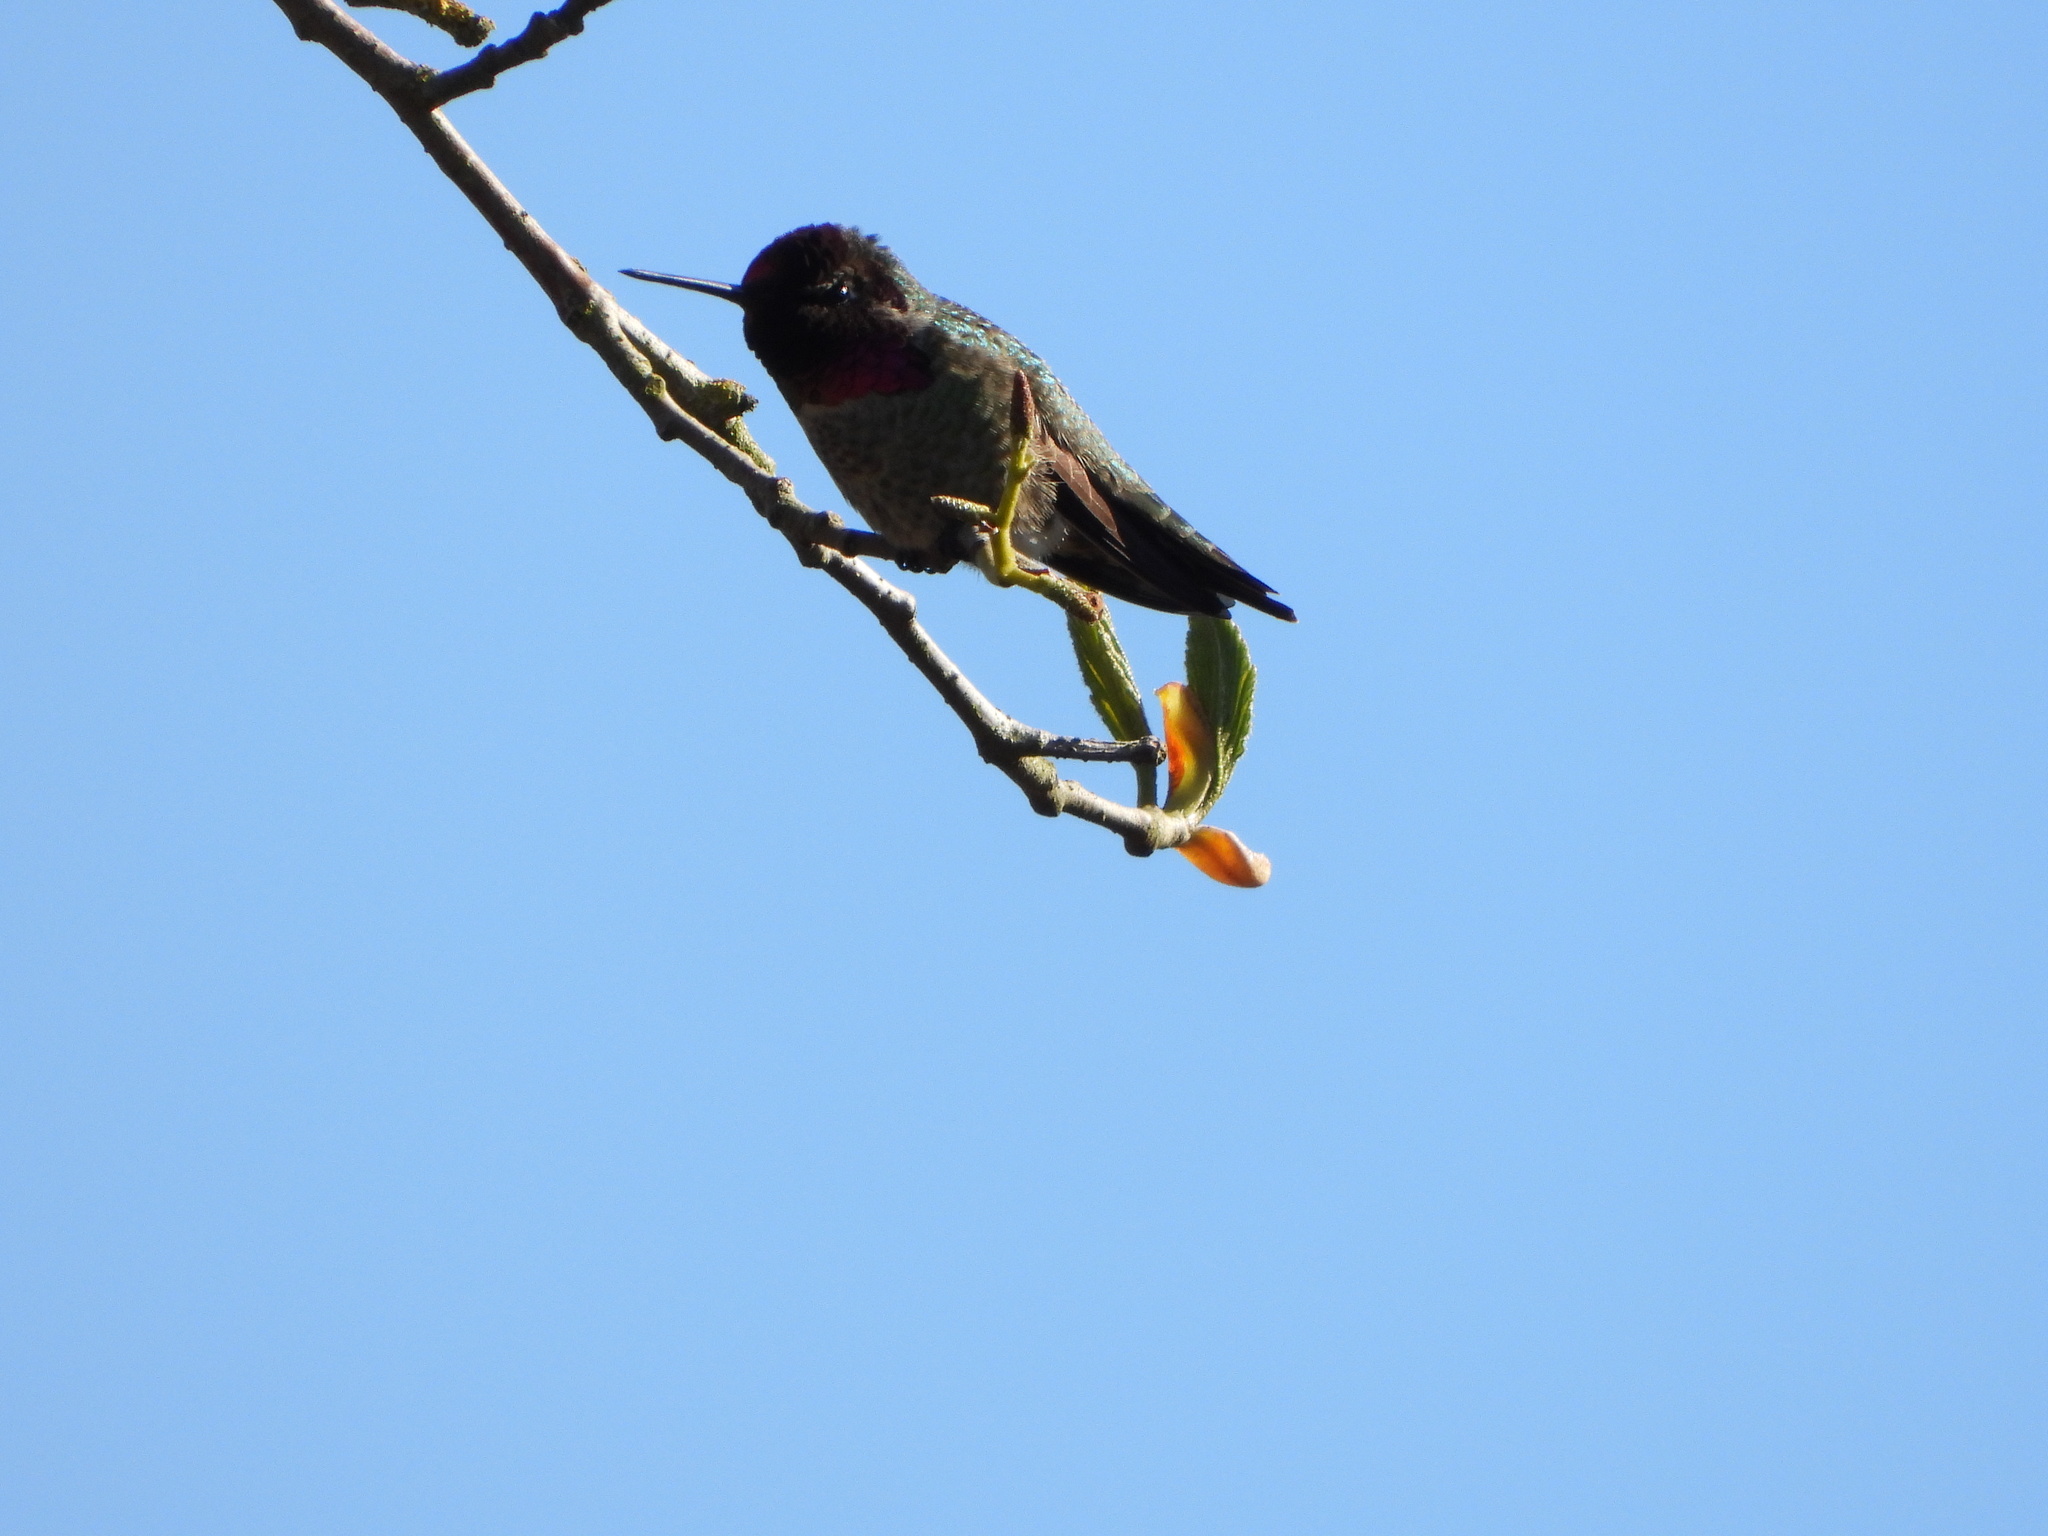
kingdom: Animalia
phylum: Chordata
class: Aves
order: Apodiformes
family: Trochilidae
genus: Calypte
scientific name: Calypte anna
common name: Anna's hummingbird
